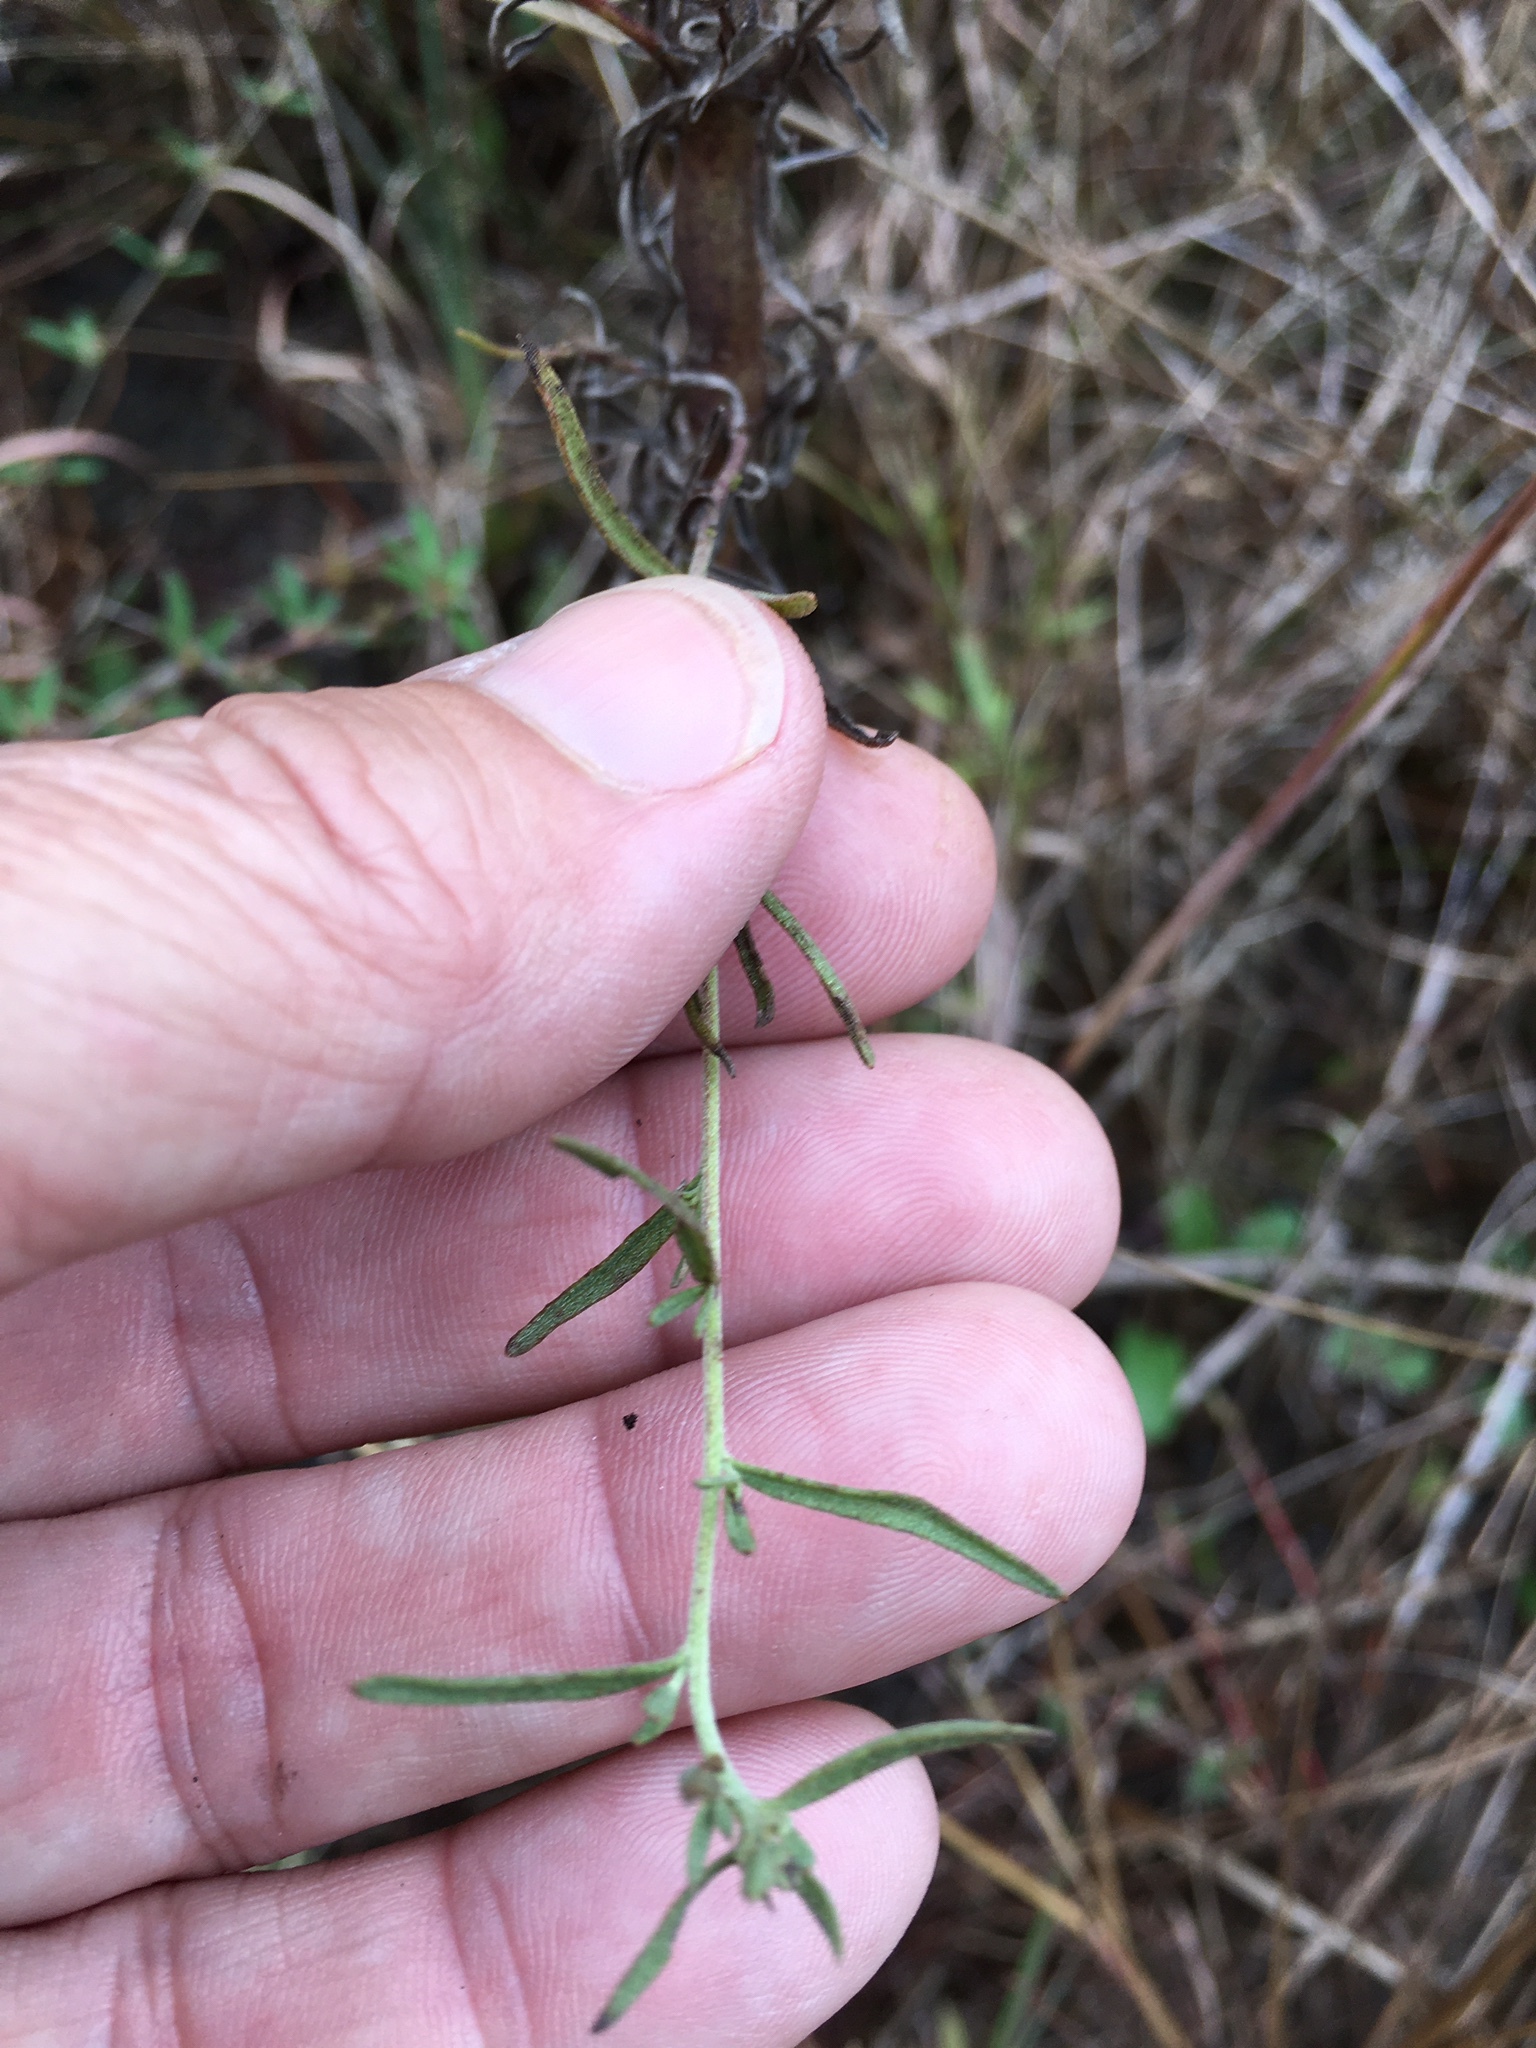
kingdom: Plantae
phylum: Tracheophyta
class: Magnoliopsida
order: Asterales
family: Asteraceae
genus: Eupatorium
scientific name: Eupatorium hyssopifolium
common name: Hyssop-leaf thoroughwort
